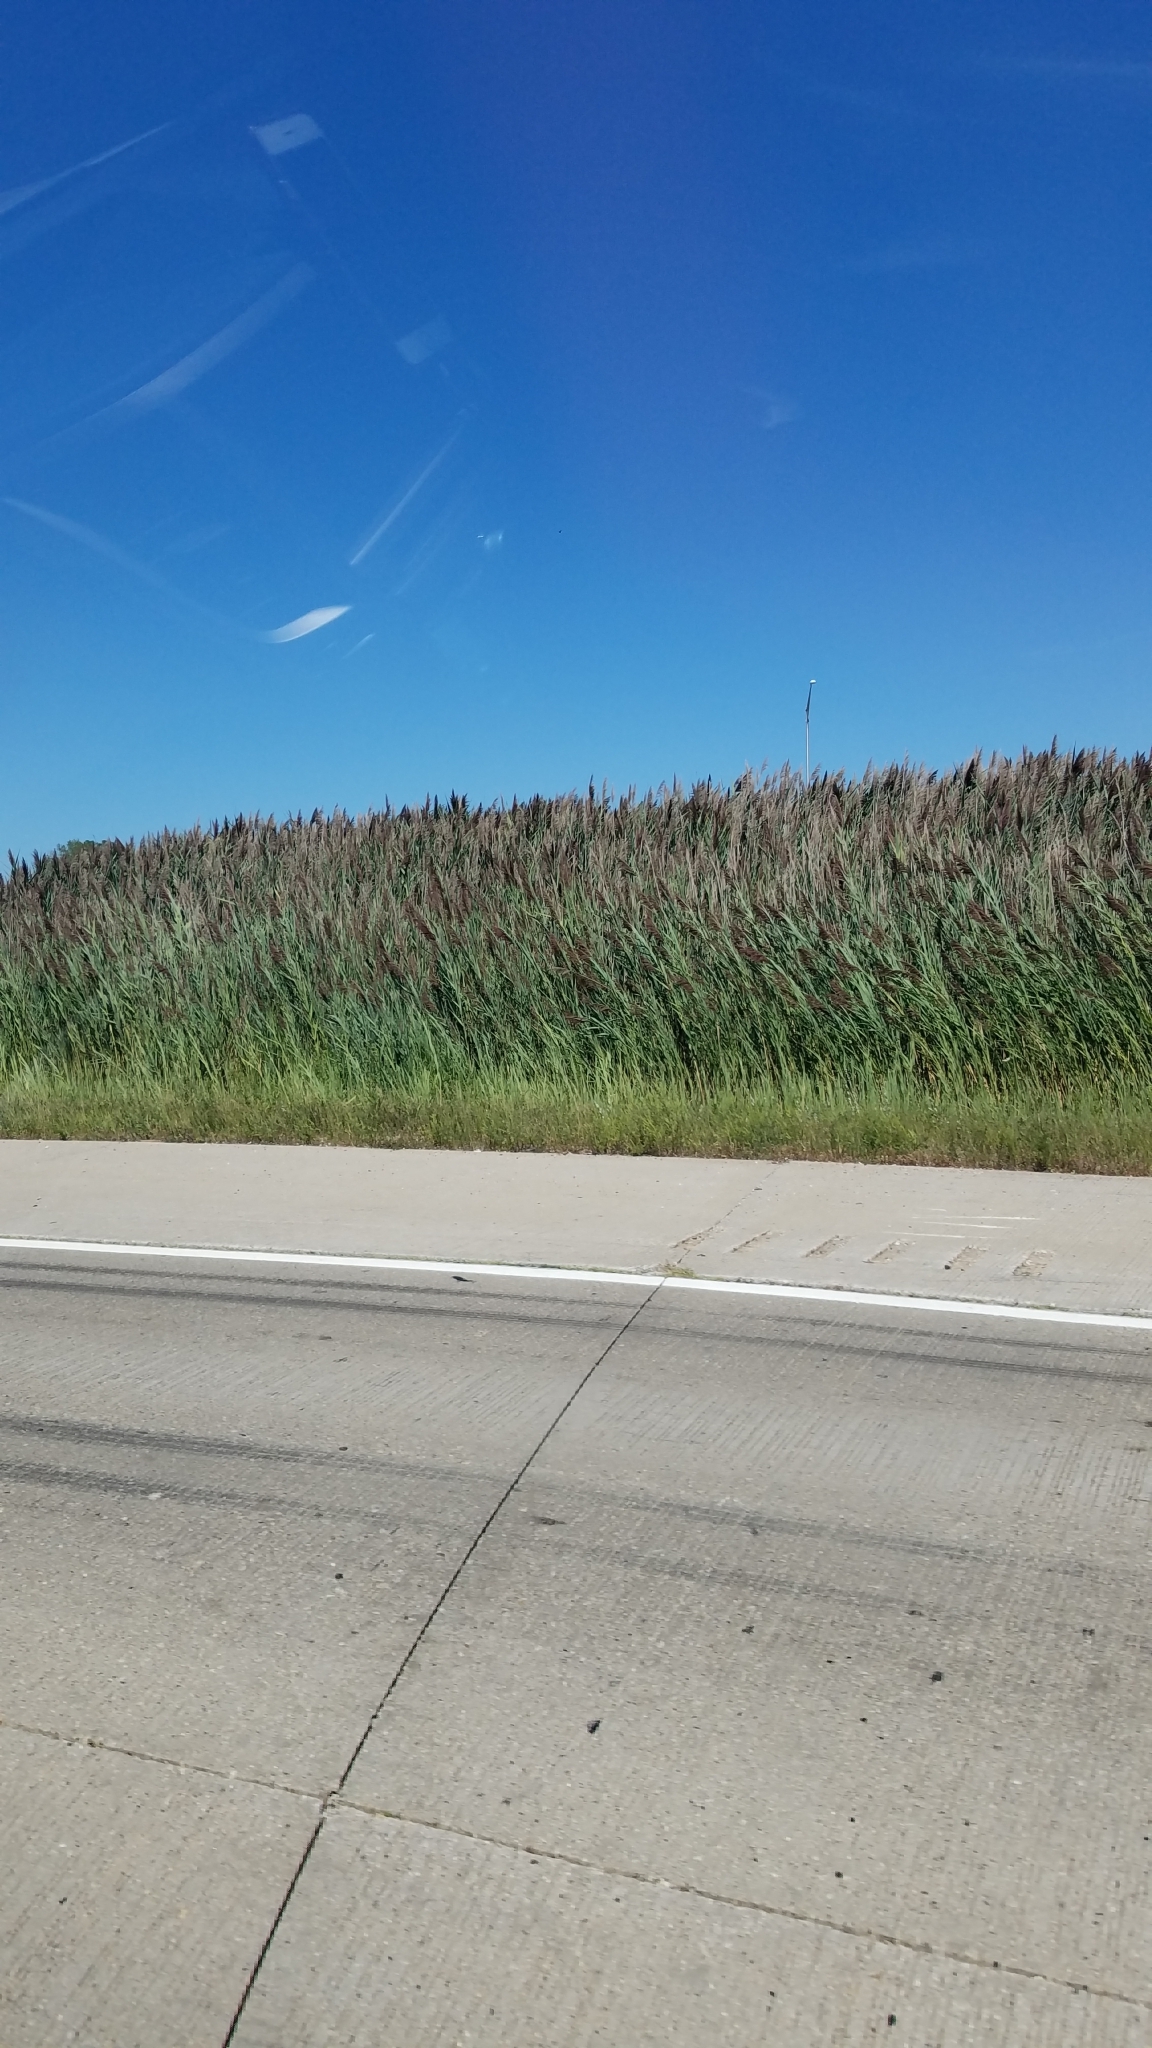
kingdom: Plantae
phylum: Tracheophyta
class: Liliopsida
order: Poales
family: Poaceae
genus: Phragmites
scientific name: Phragmites australis
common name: Common reed
